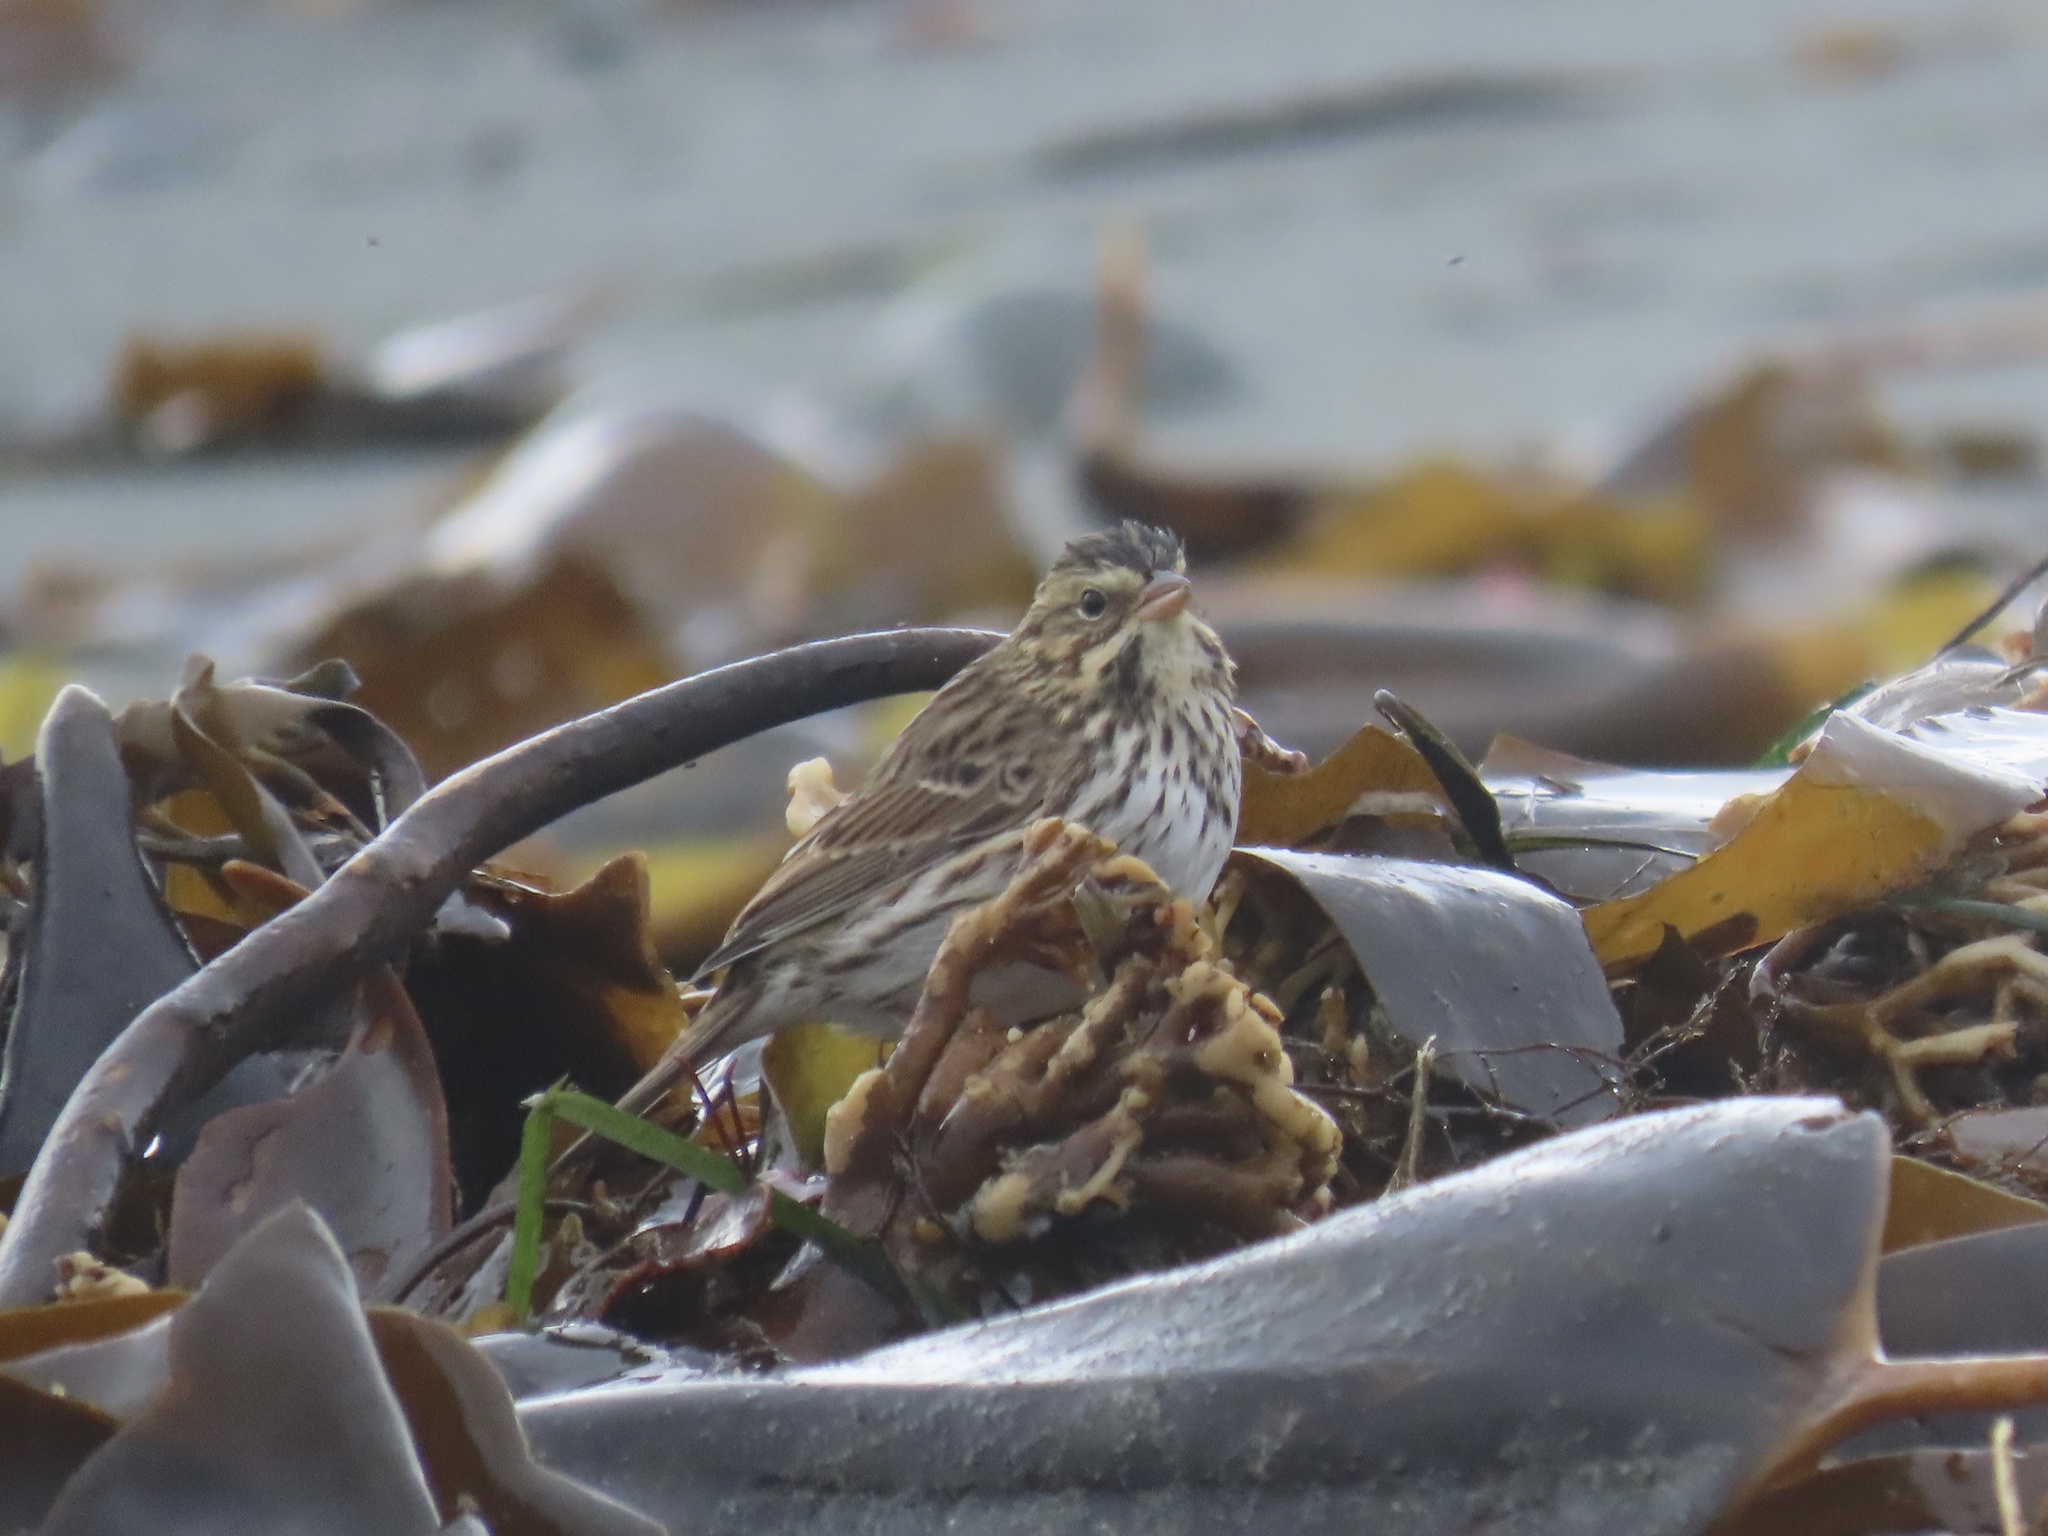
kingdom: Animalia
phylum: Chordata
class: Aves
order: Passeriformes
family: Passerellidae
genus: Passerculus
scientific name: Passerculus sandwichensis
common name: Savannah sparrow
